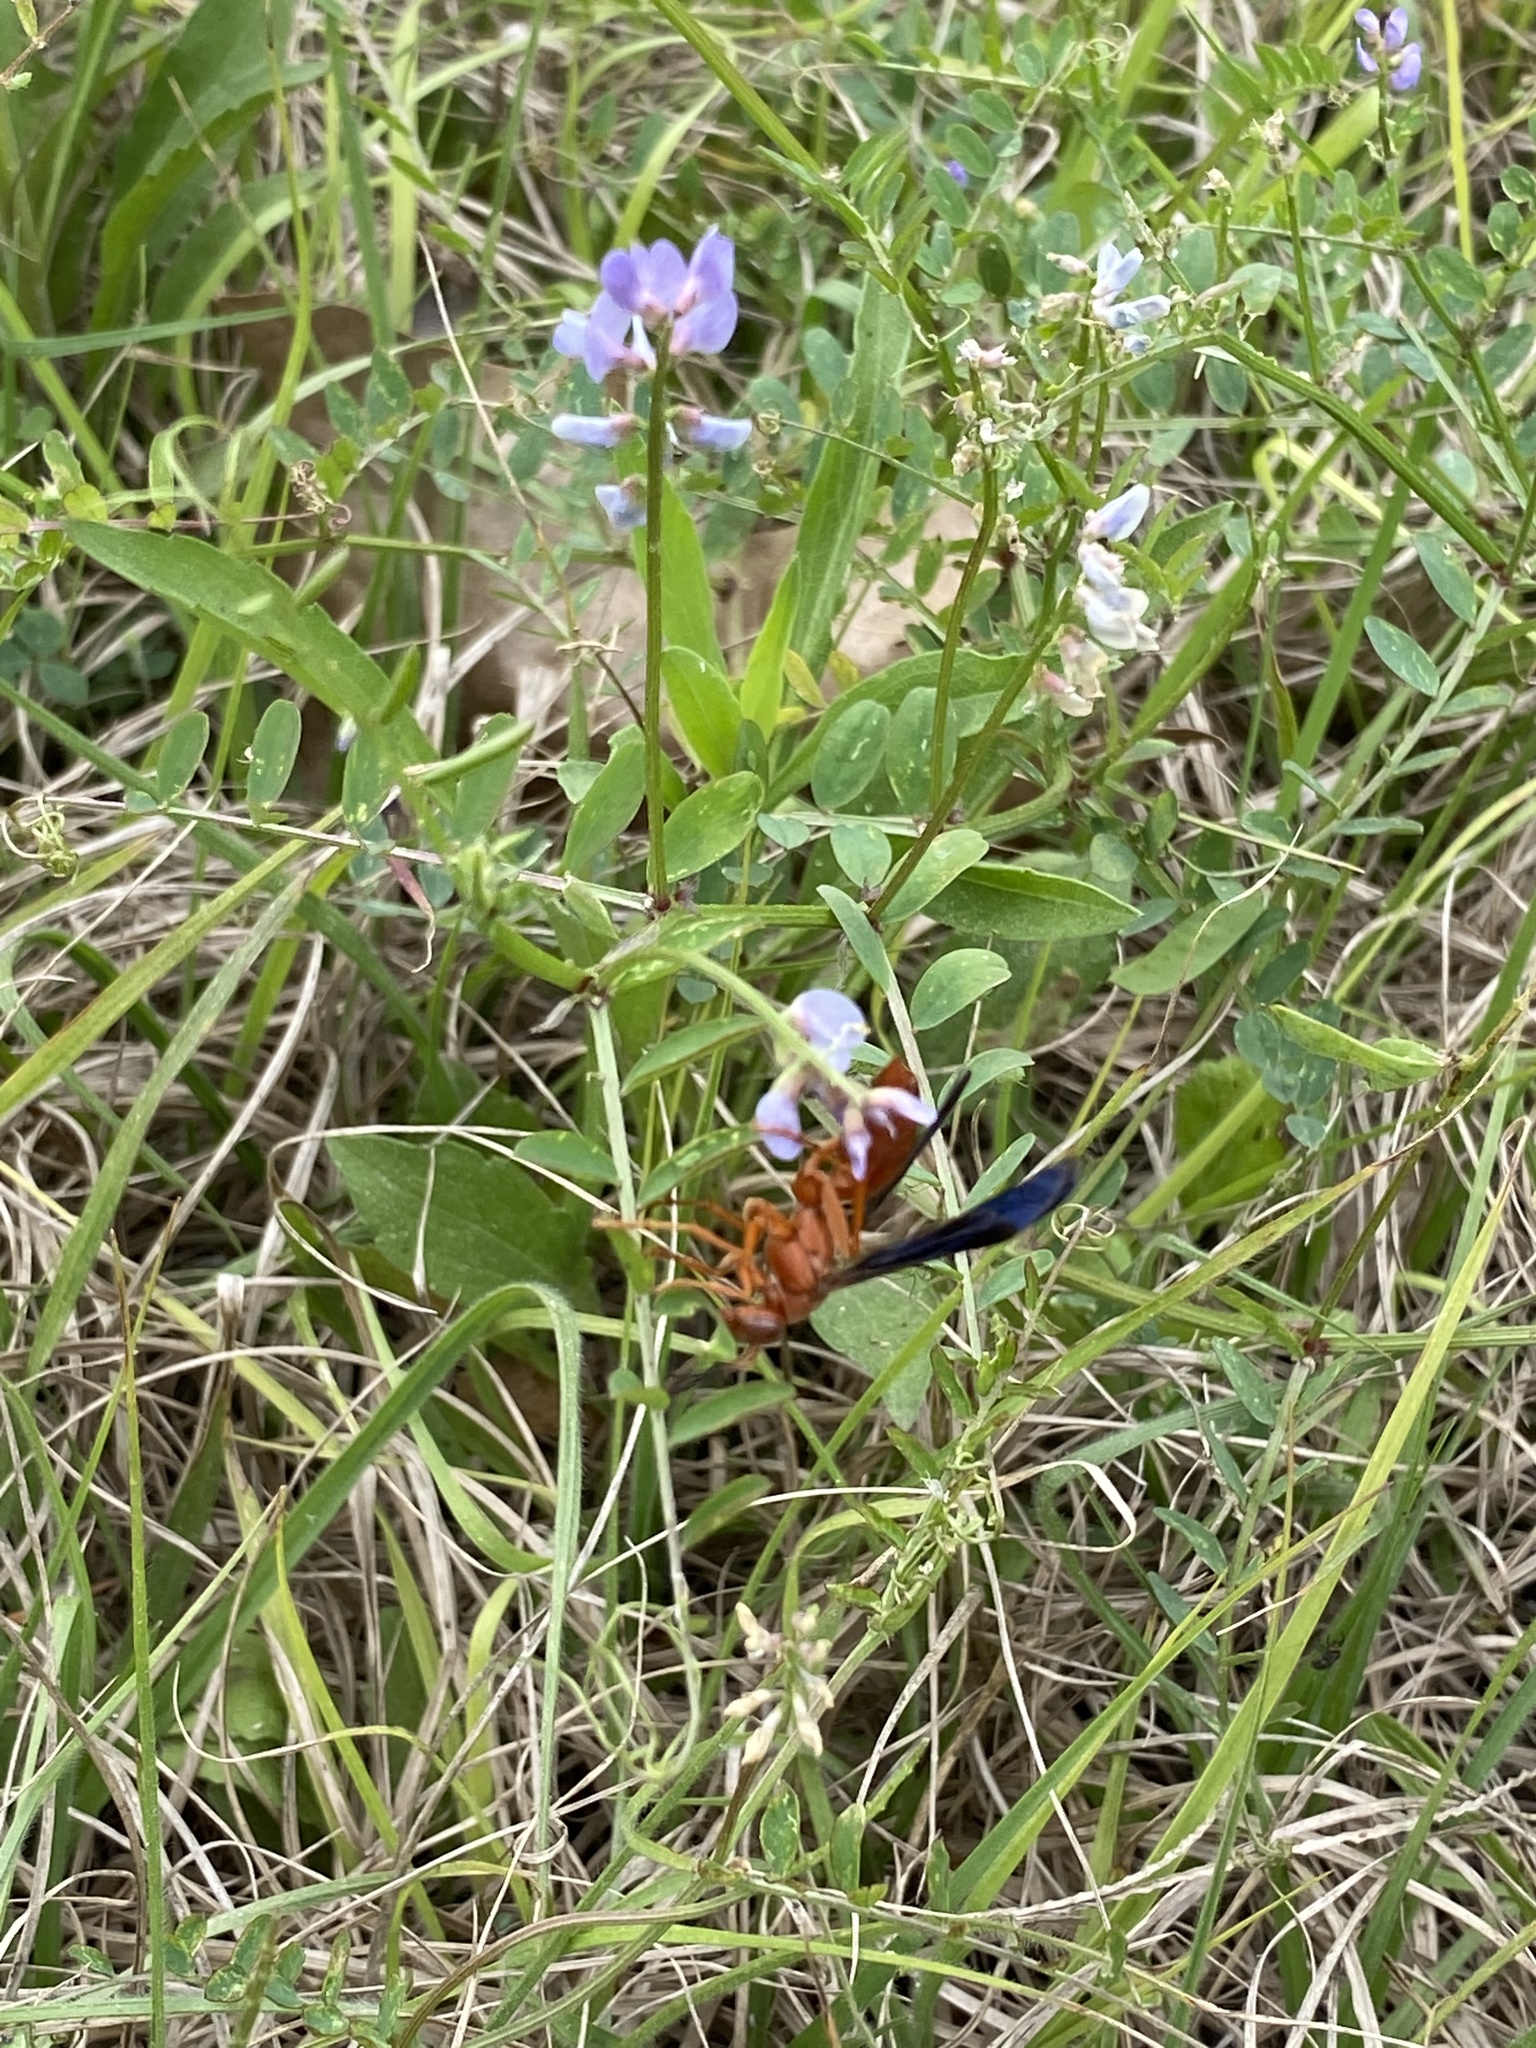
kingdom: Animalia
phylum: Arthropoda
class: Insecta
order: Hymenoptera
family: Vespidae
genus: Fuscopolistes
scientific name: Fuscopolistes
